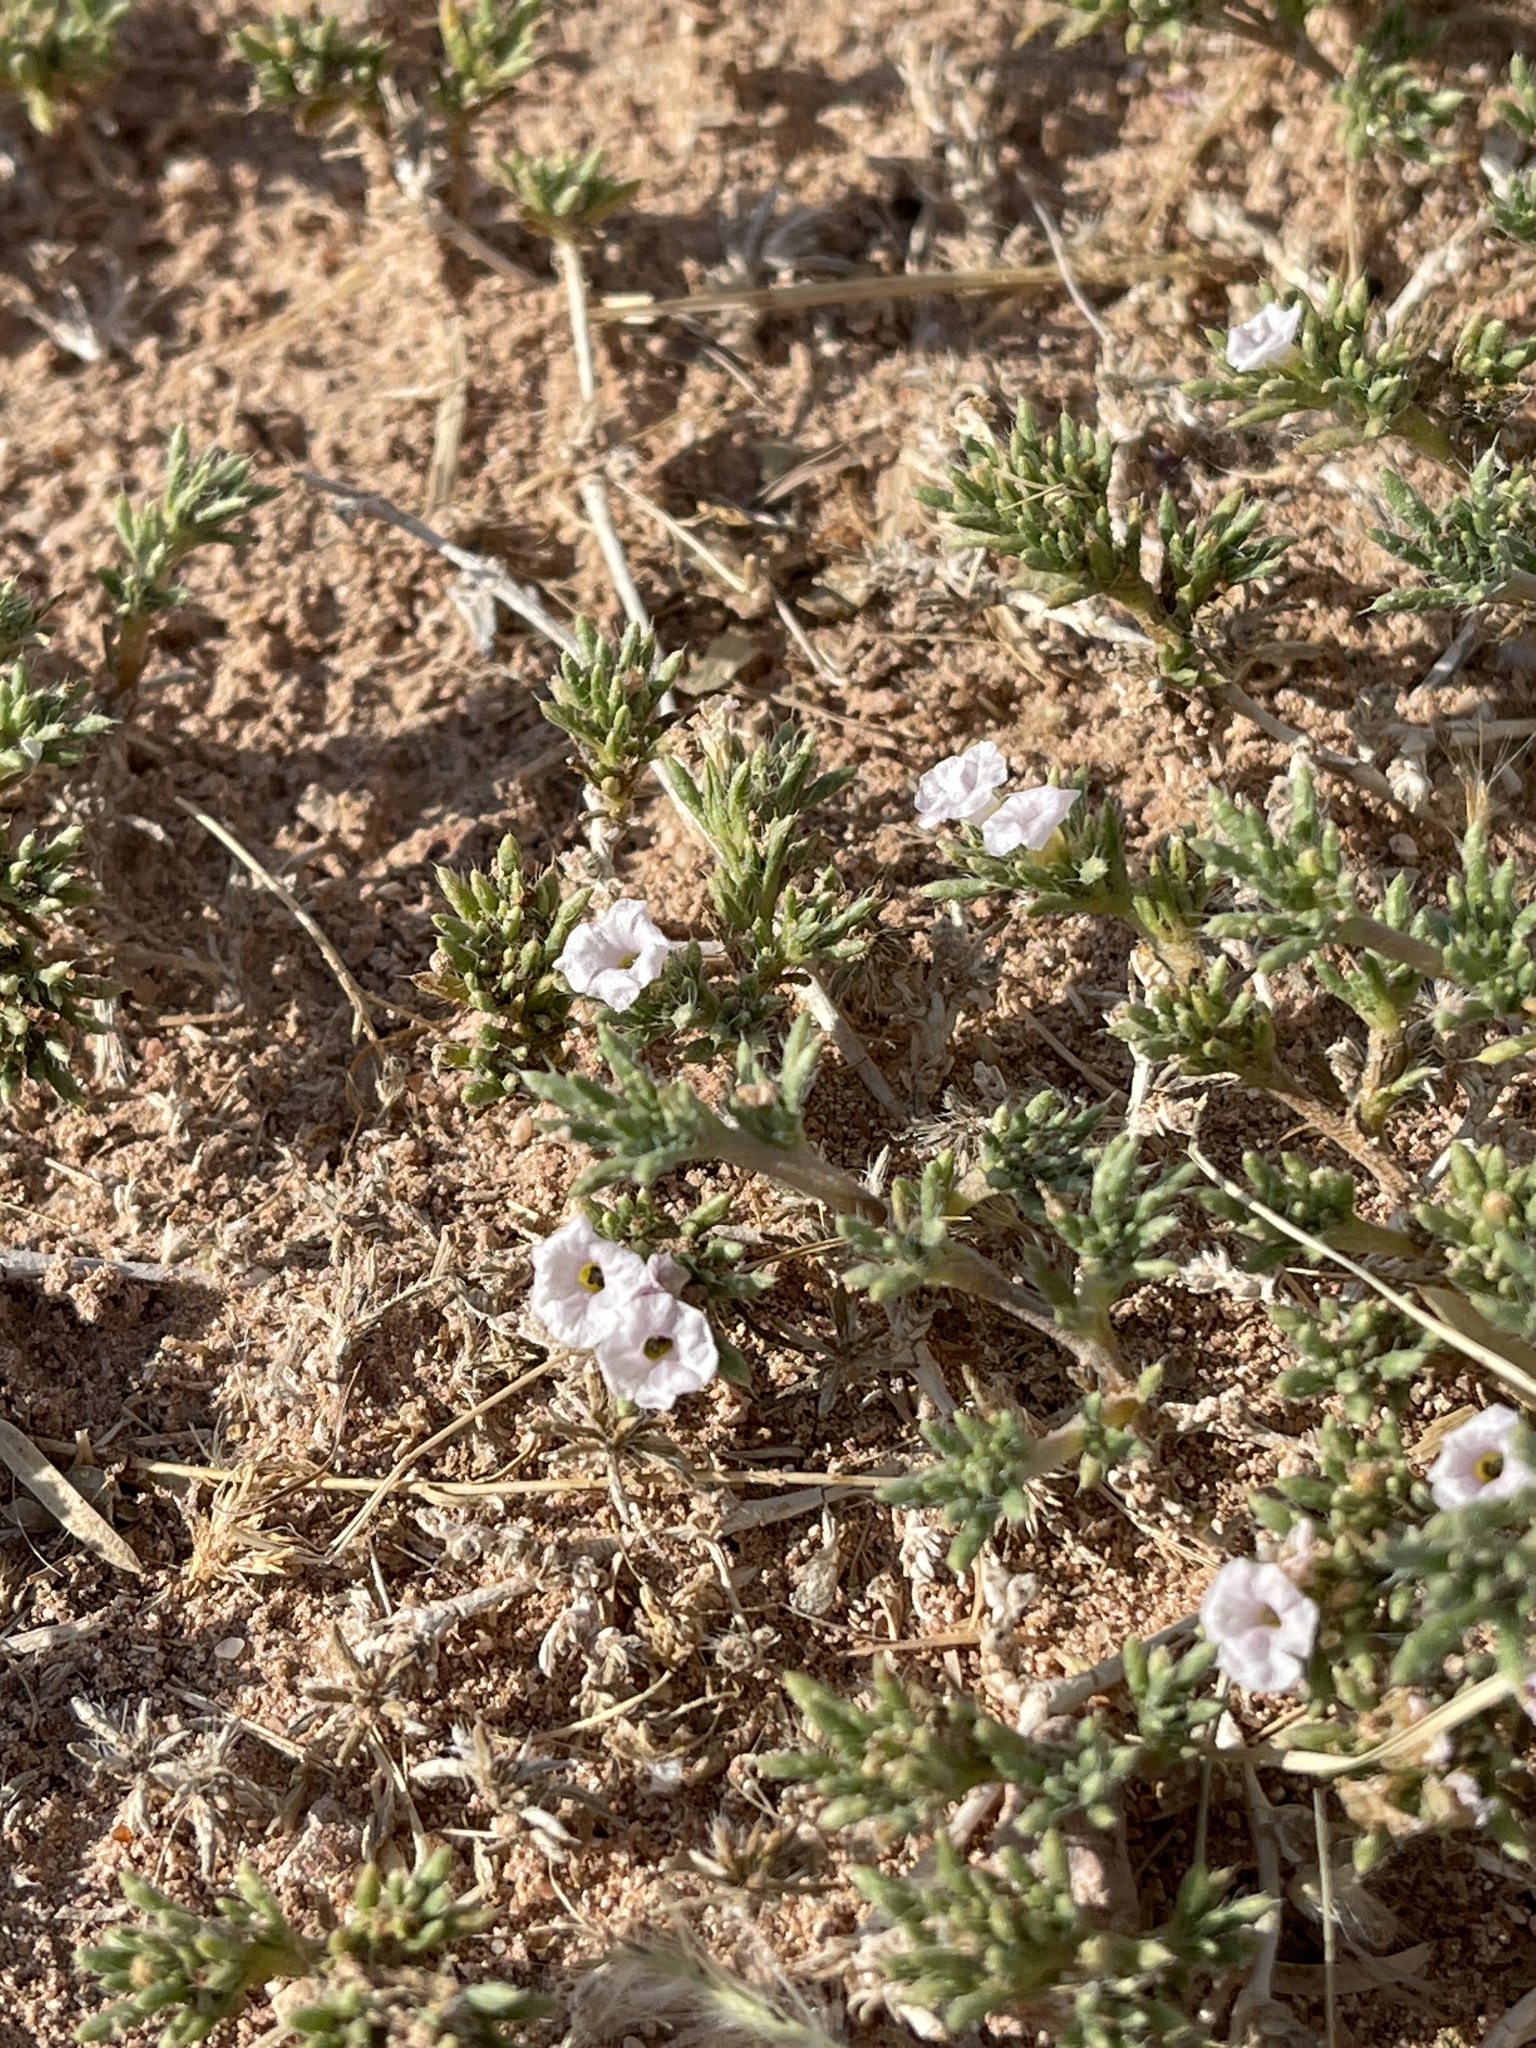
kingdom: Plantae
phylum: Tracheophyta
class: Magnoliopsida
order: Boraginales
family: Ehretiaceae
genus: Tiquilia
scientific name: Tiquilia hispidissima
